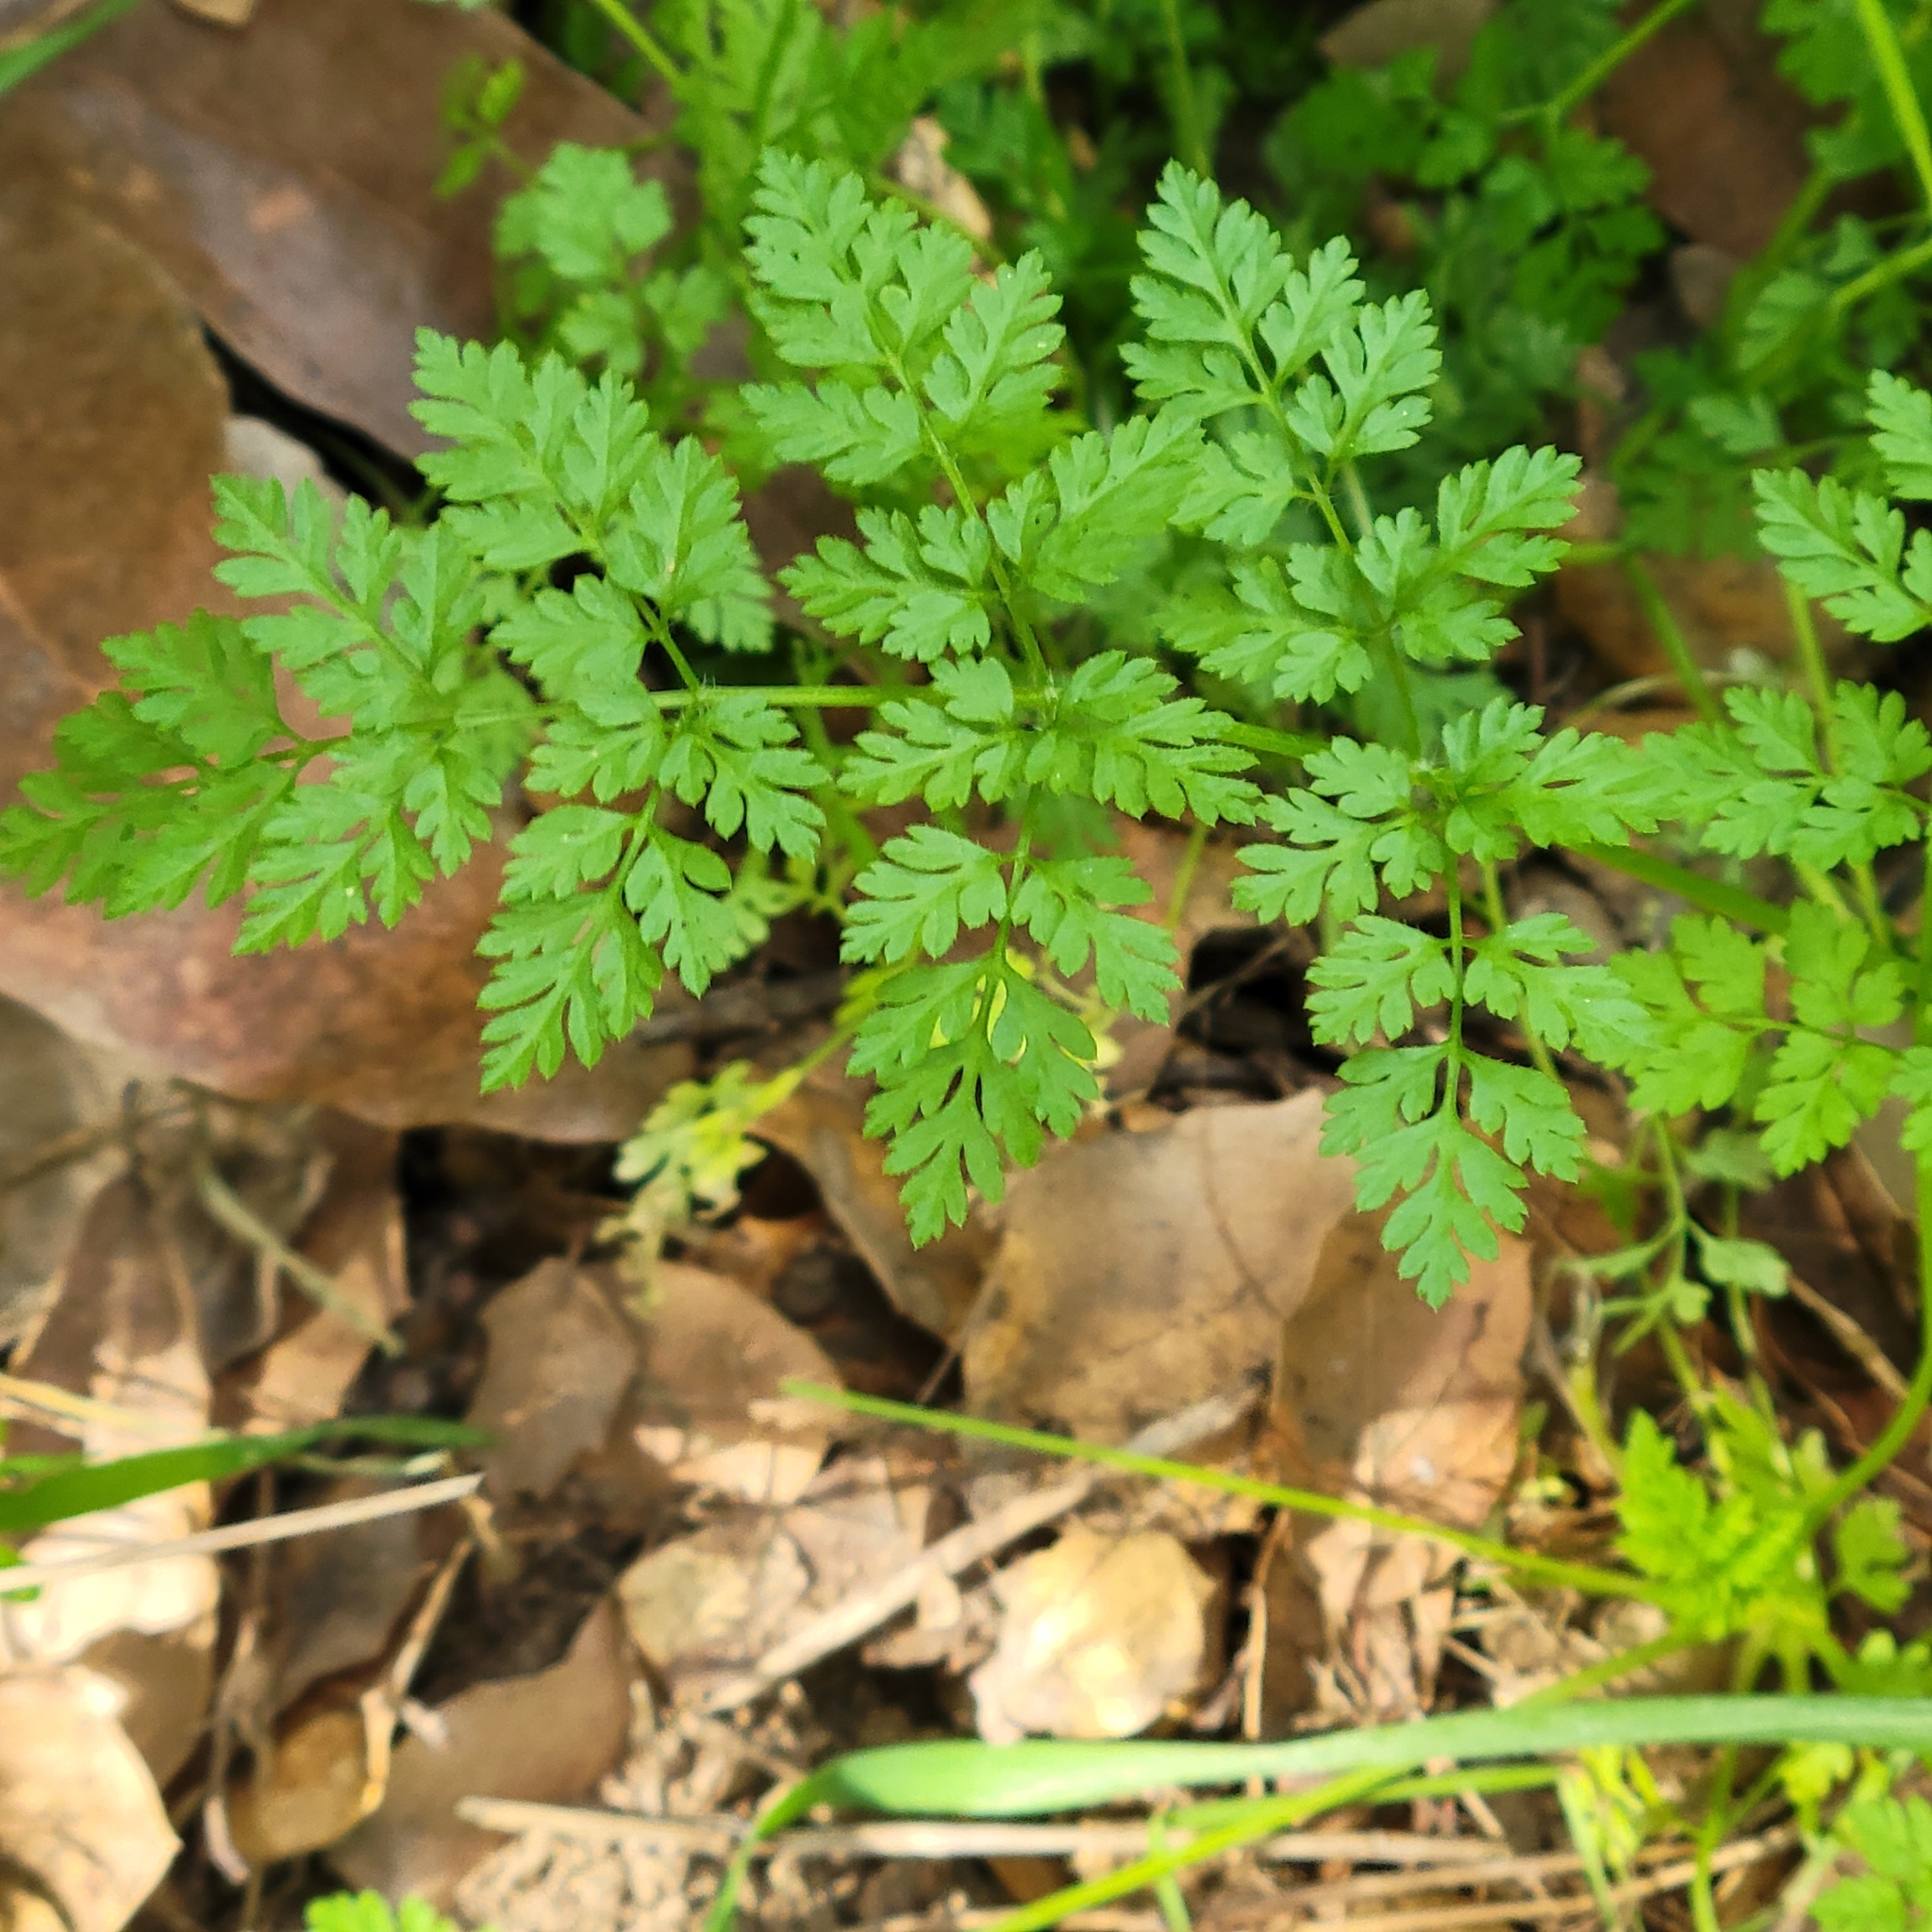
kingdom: Plantae
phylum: Tracheophyta
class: Magnoliopsida
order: Apiales
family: Apiaceae
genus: Anthriscus
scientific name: Anthriscus caucalis
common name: Bur chervil
